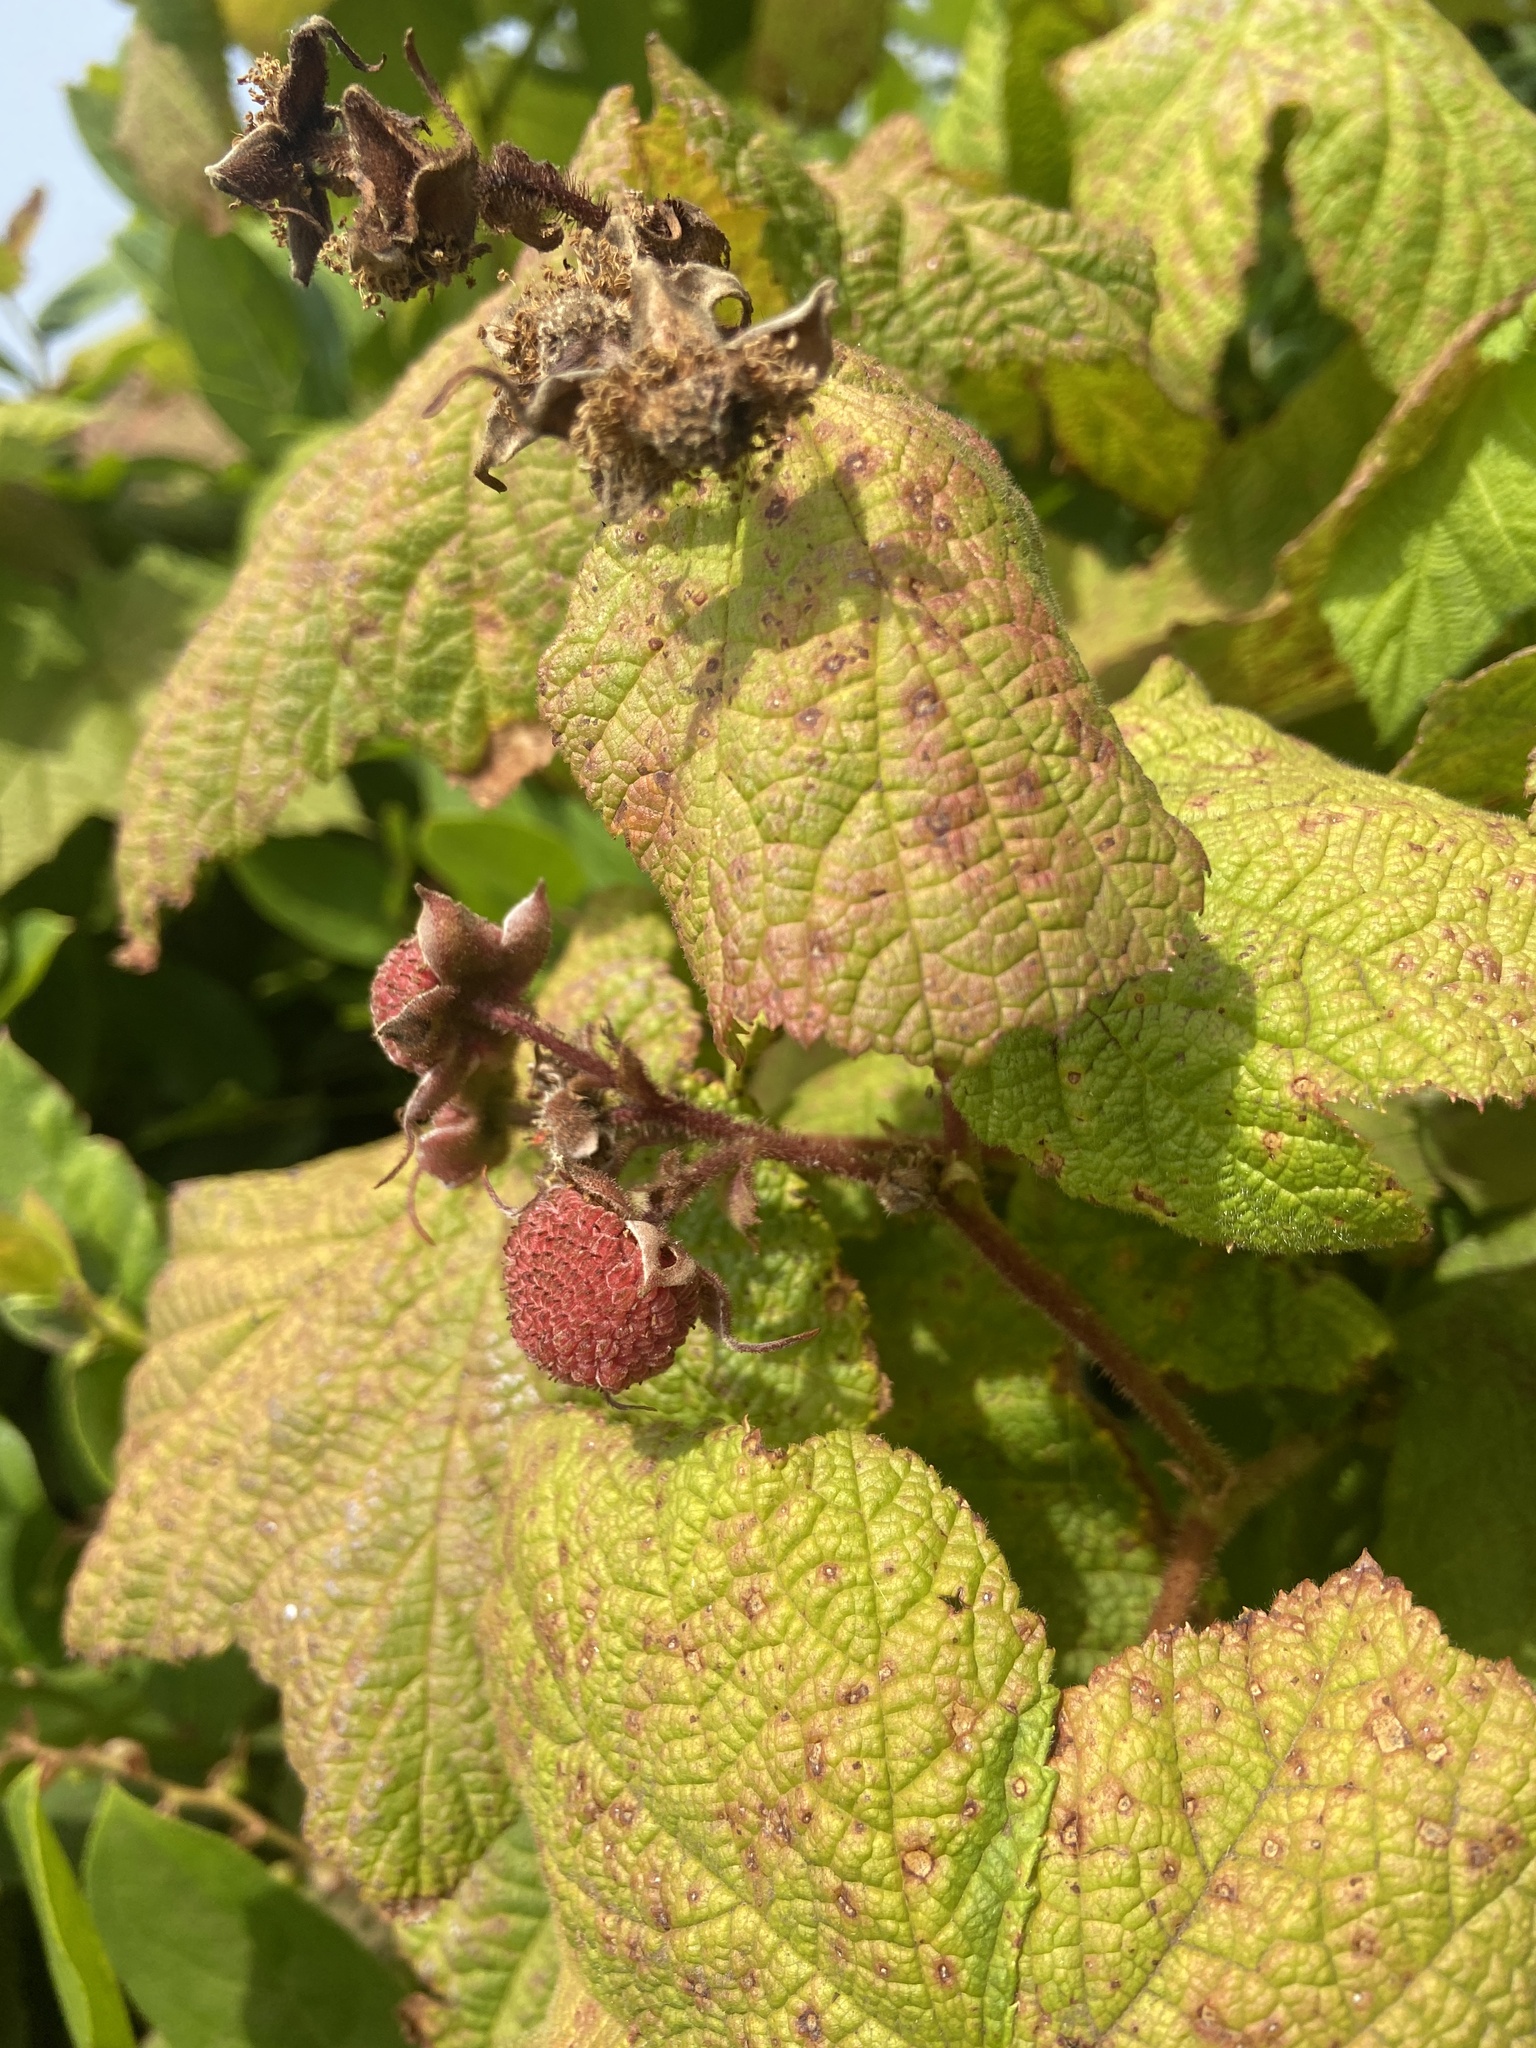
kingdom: Plantae
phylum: Tracheophyta
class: Magnoliopsida
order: Rosales
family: Rosaceae
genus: Rubus
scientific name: Rubus parviflorus
